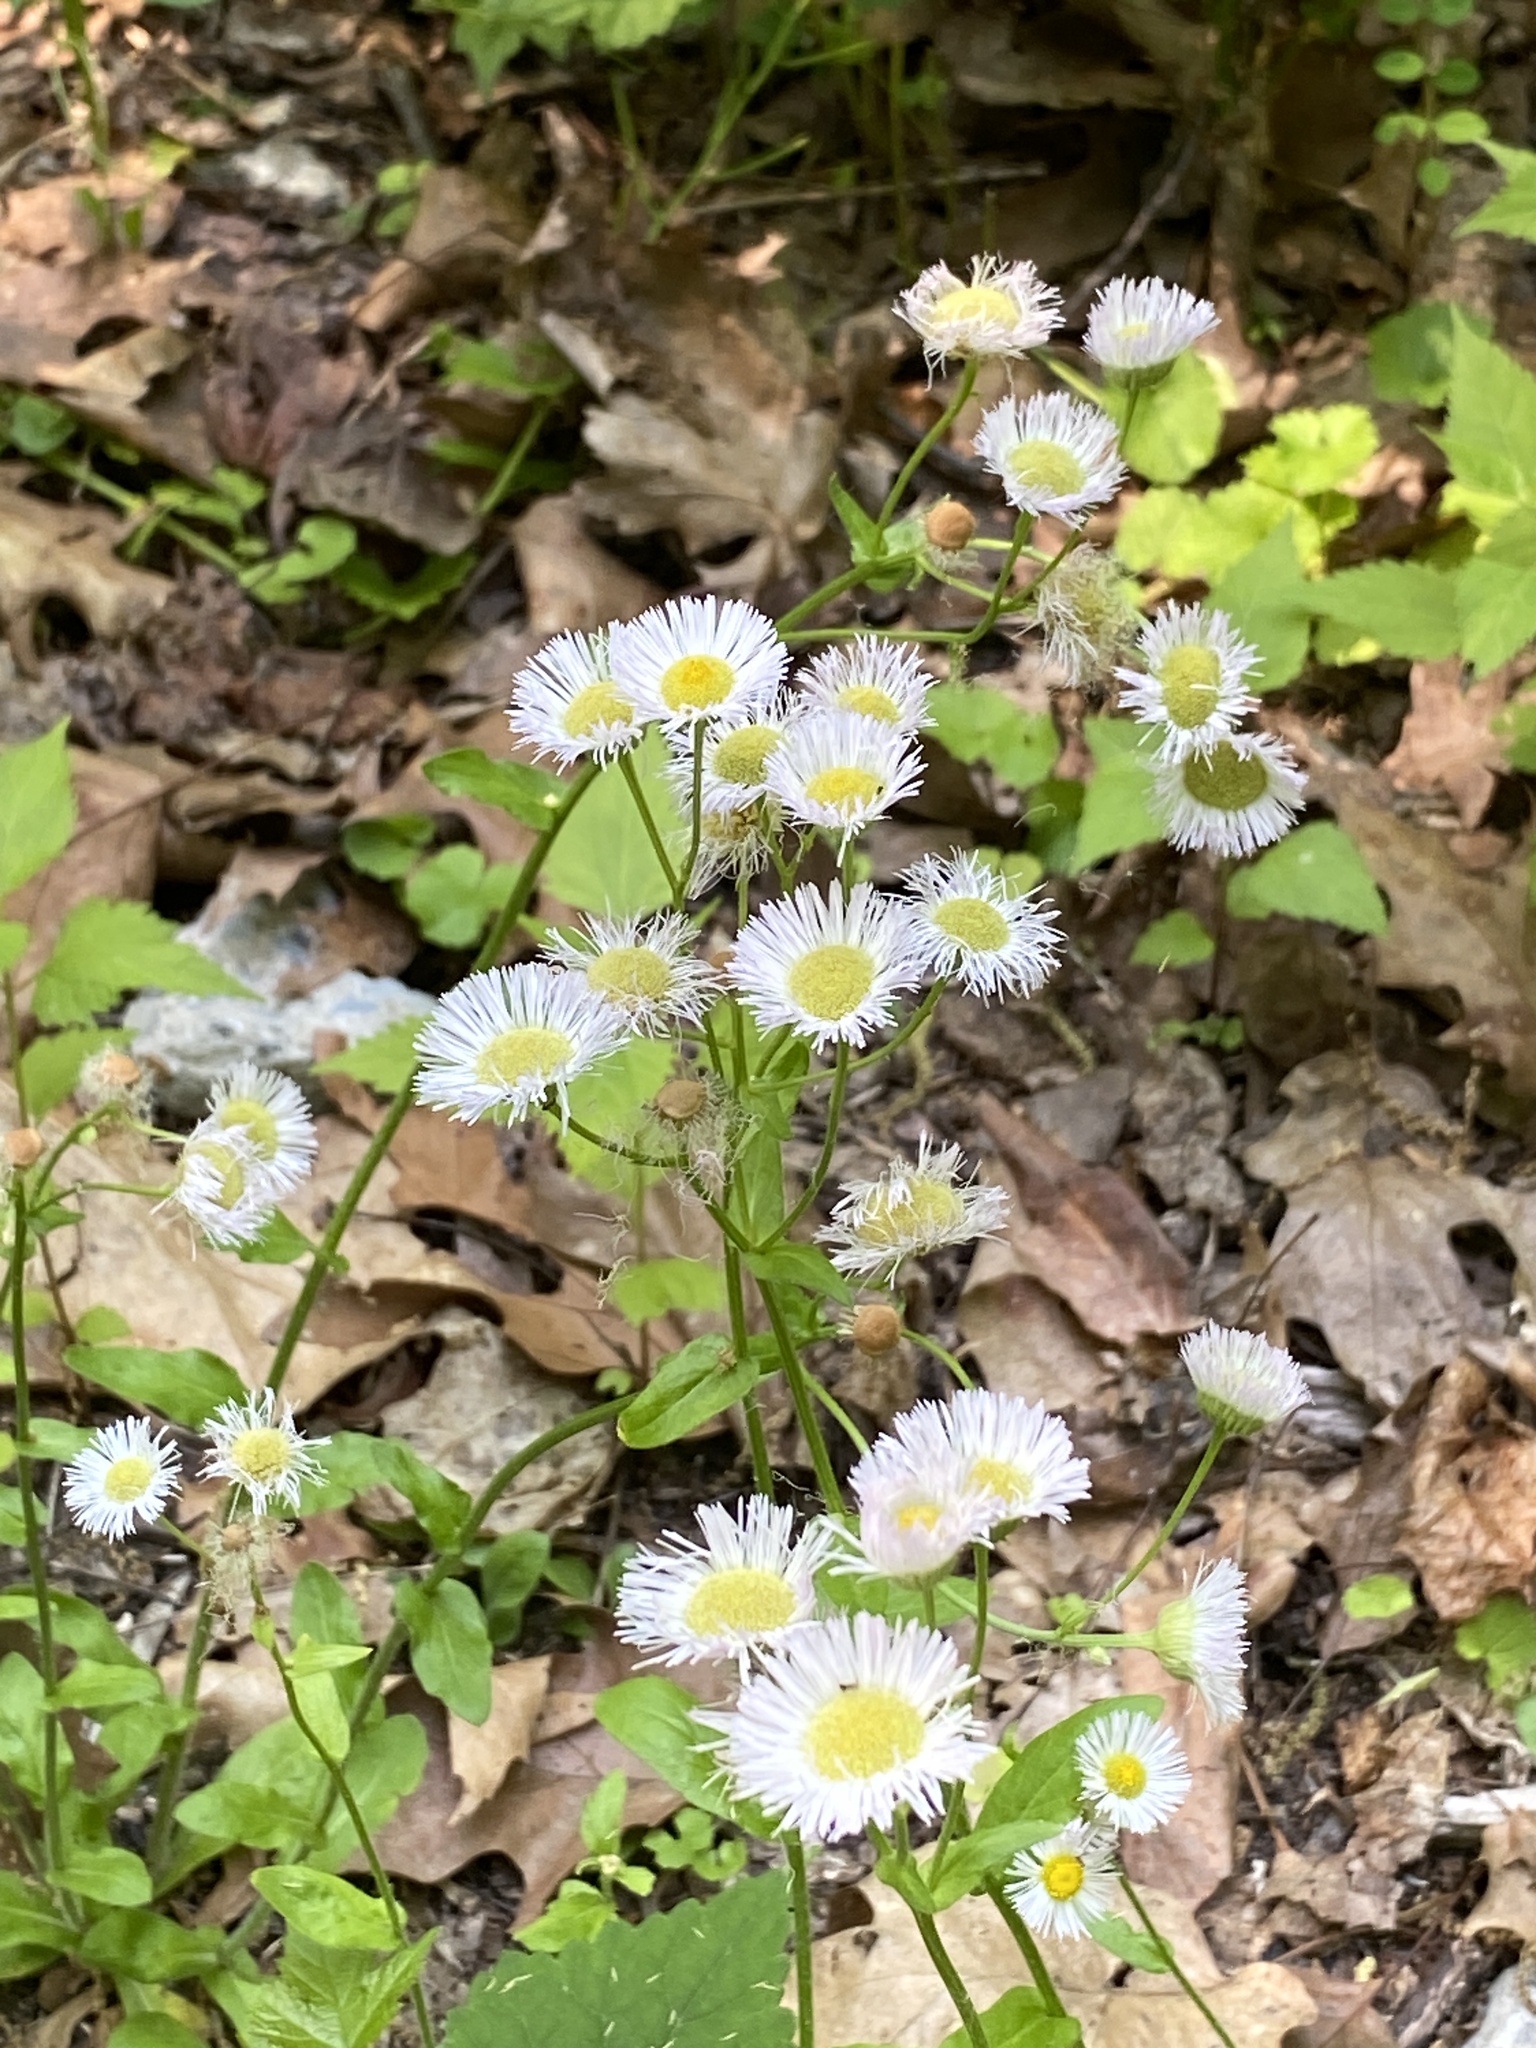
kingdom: Plantae
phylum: Tracheophyta
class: Magnoliopsida
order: Asterales
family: Asteraceae
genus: Erigeron
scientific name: Erigeron philadelphicus
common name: Robin's-plantain
